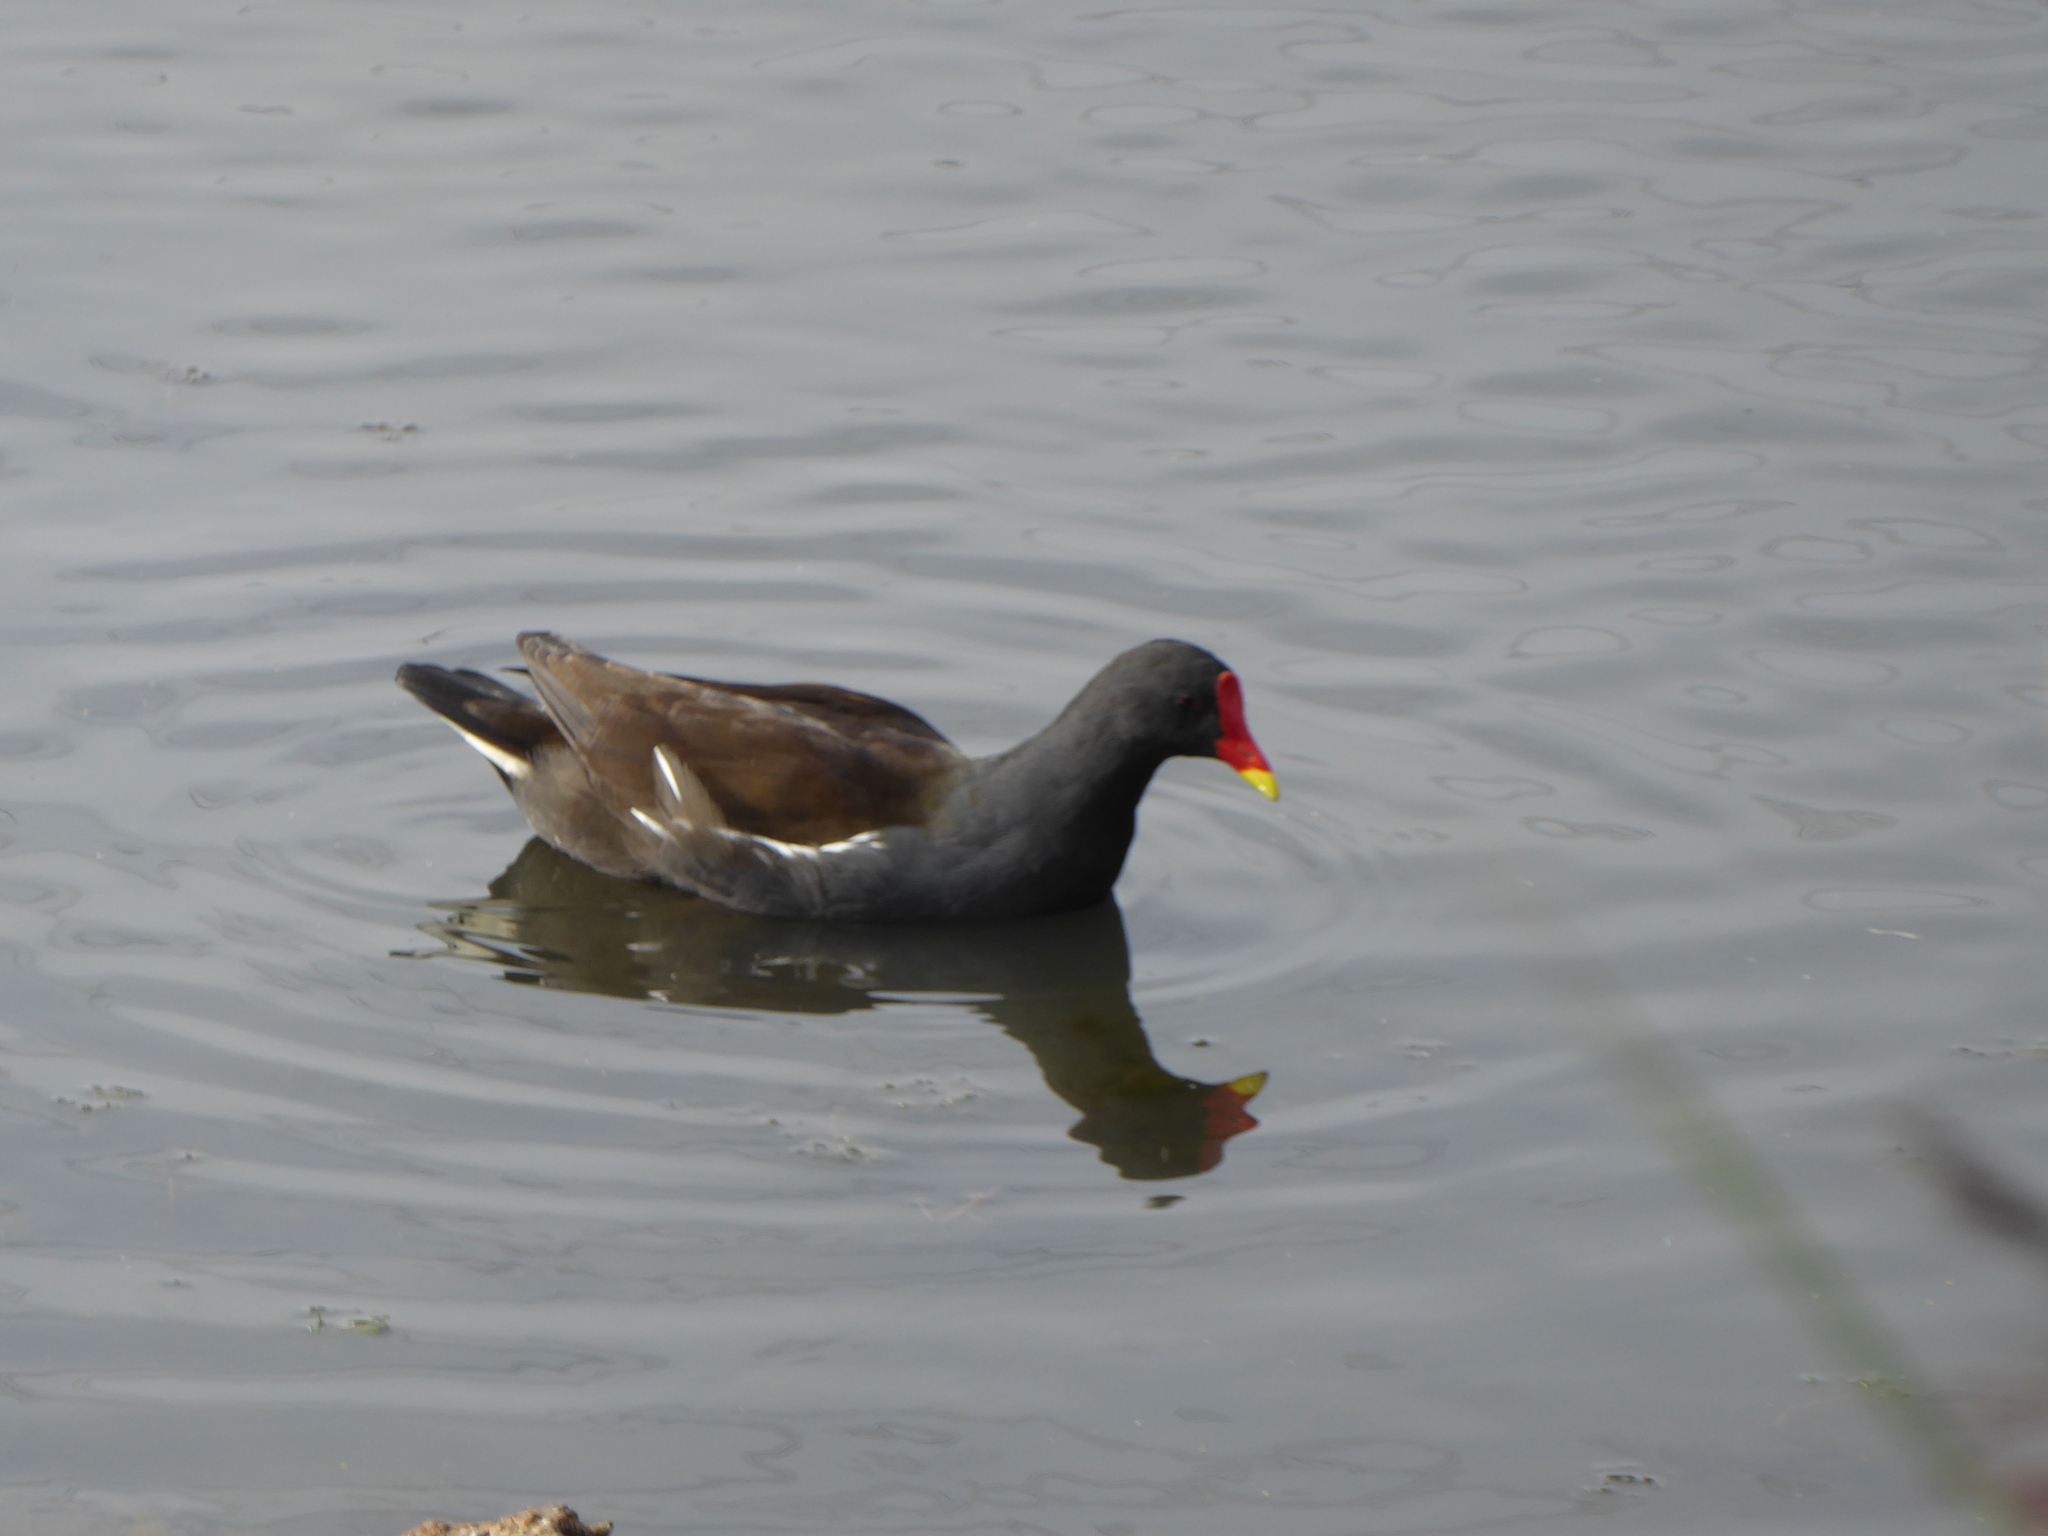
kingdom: Animalia
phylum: Chordata
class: Aves
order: Gruiformes
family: Rallidae
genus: Gallinula
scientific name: Gallinula chloropus
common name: Common moorhen
